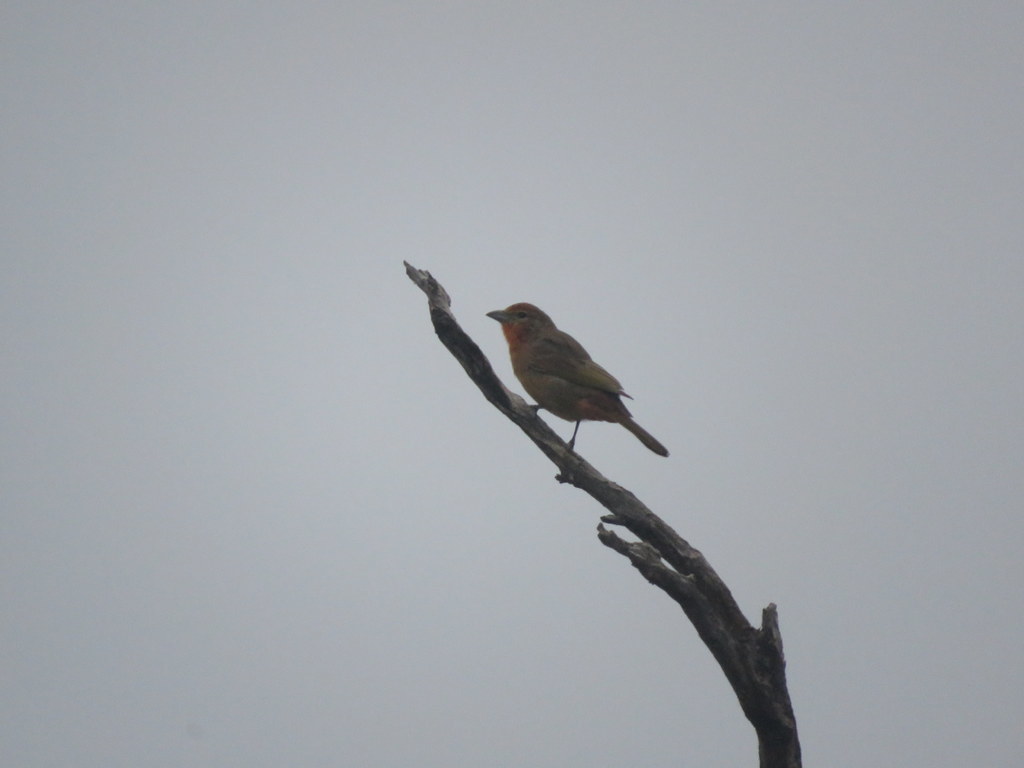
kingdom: Animalia
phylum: Chordata
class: Aves
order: Passeriformes
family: Cardinalidae
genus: Piranga
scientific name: Piranga flava
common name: Red tanager
